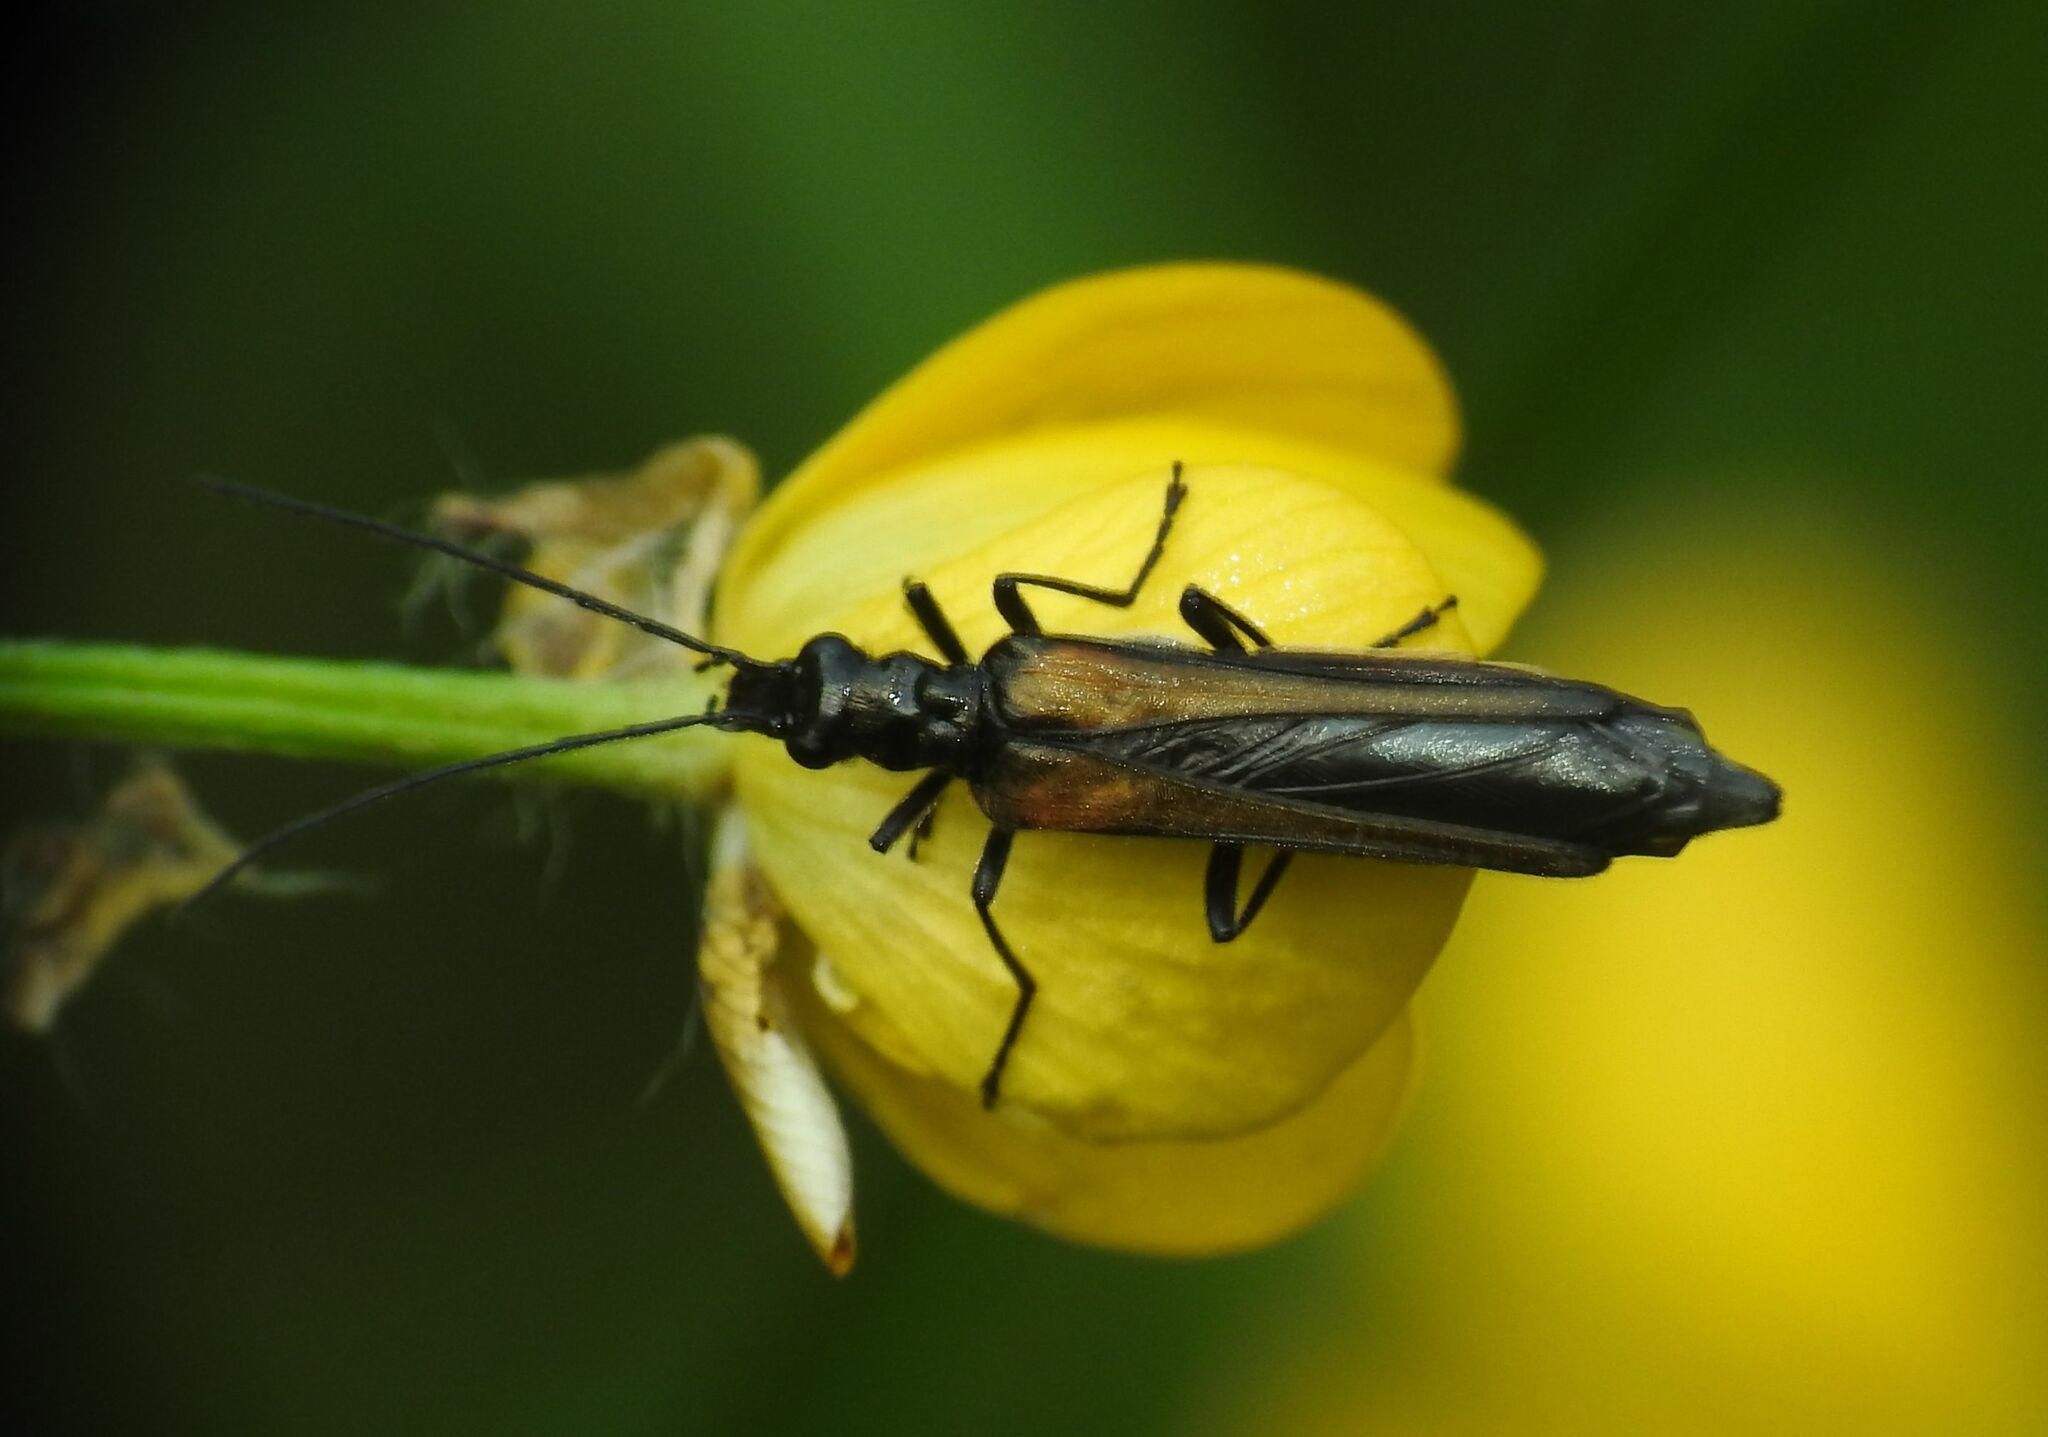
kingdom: Animalia
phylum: Arthropoda
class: Insecta
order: Coleoptera
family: Oedemeridae
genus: Oedemera
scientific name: Oedemera pthysica
